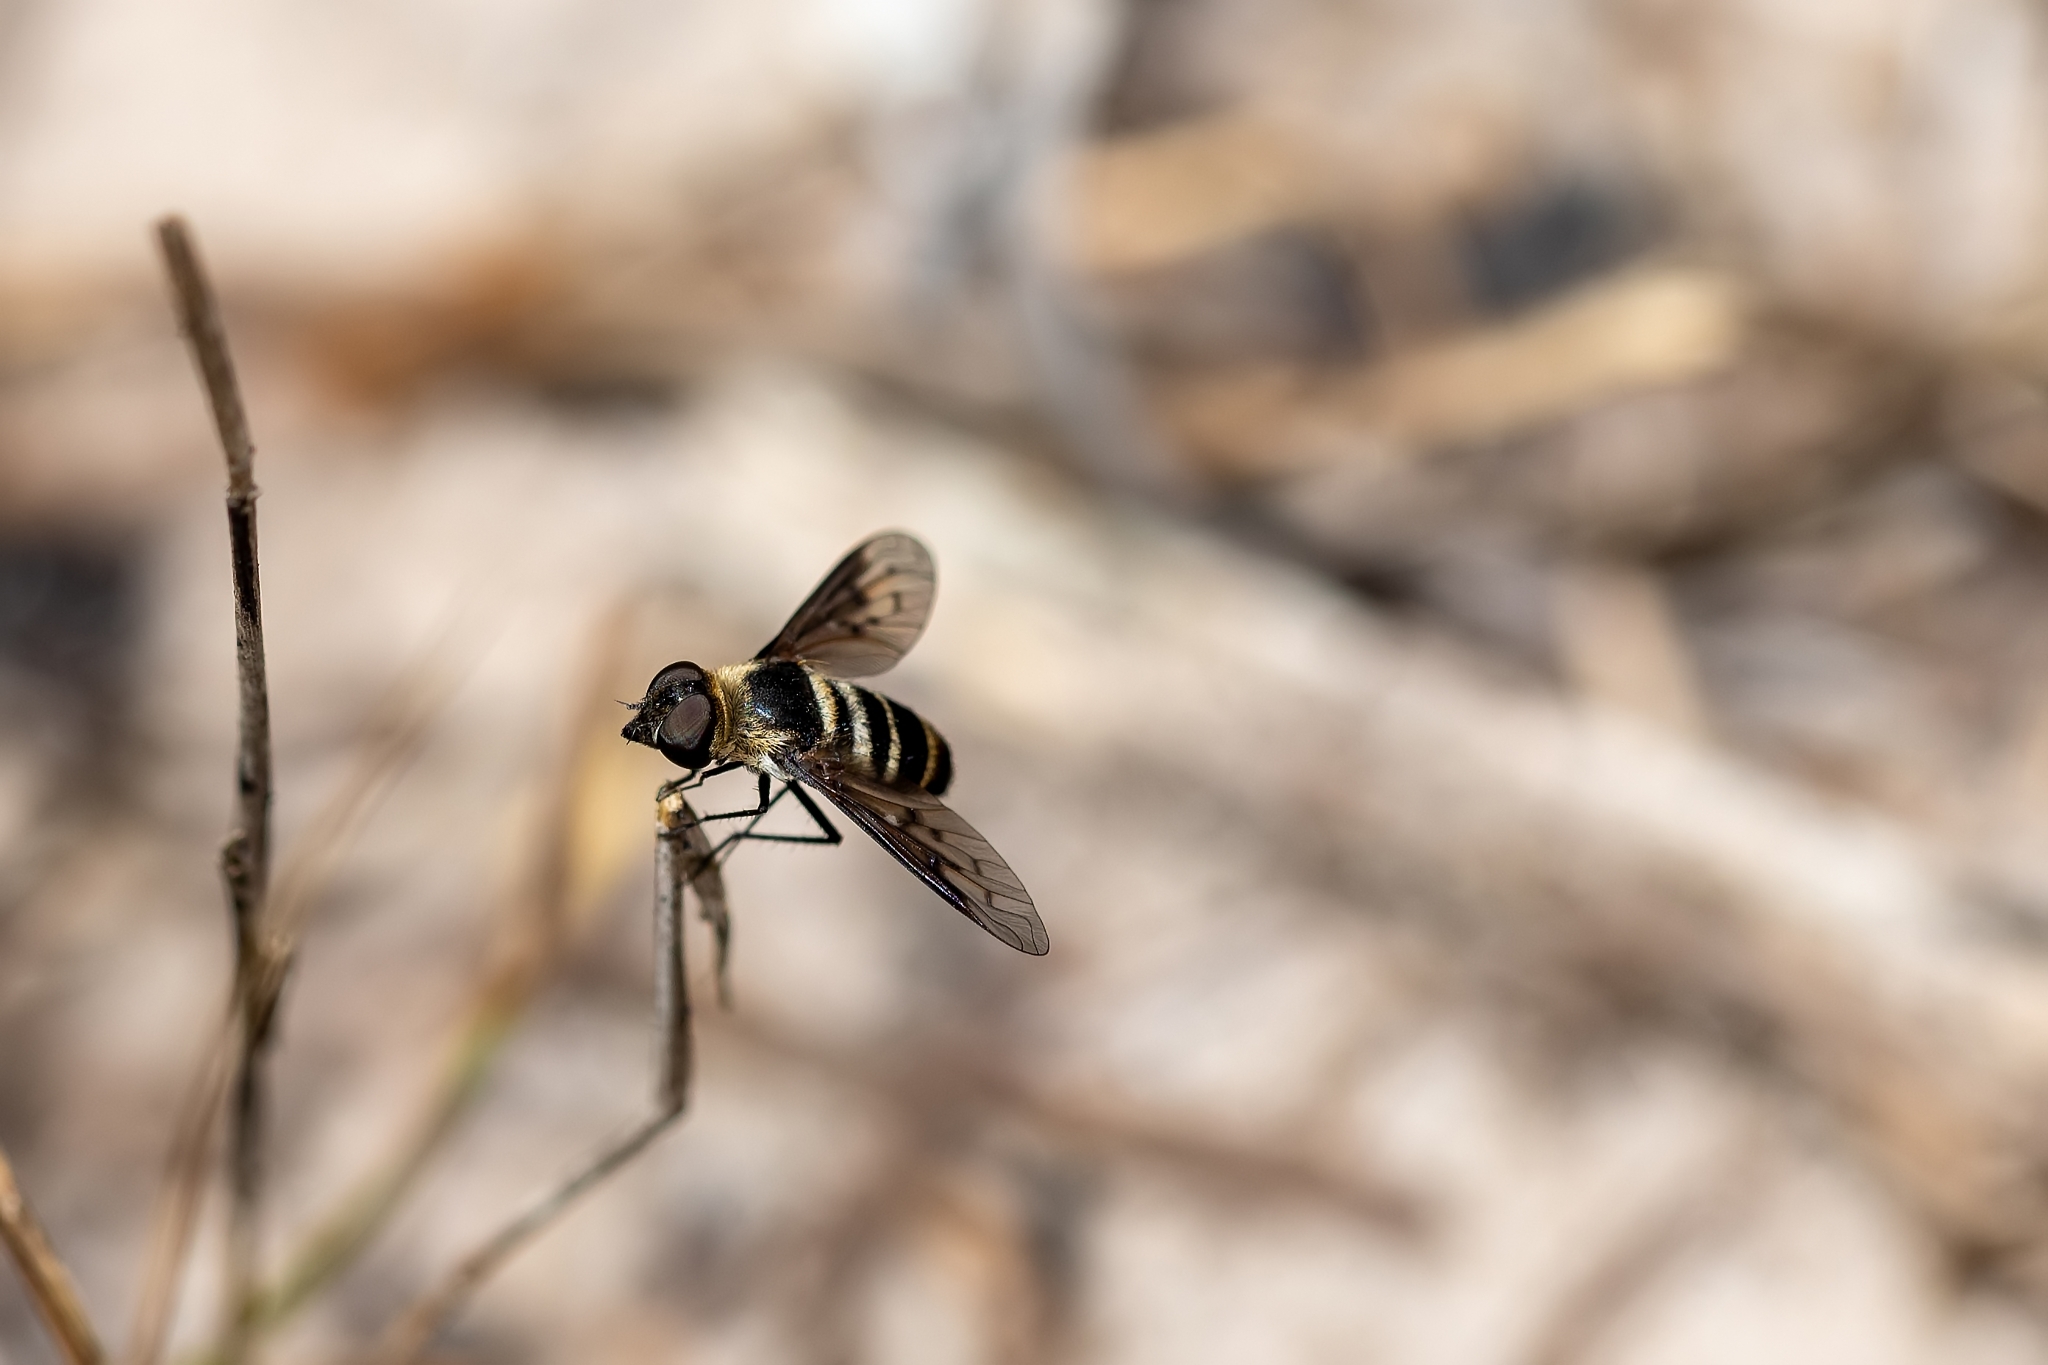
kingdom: Animalia
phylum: Arthropoda
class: Insecta
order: Diptera
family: Bombyliidae
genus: Chrysanthrax
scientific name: Chrysanthrax dispar
